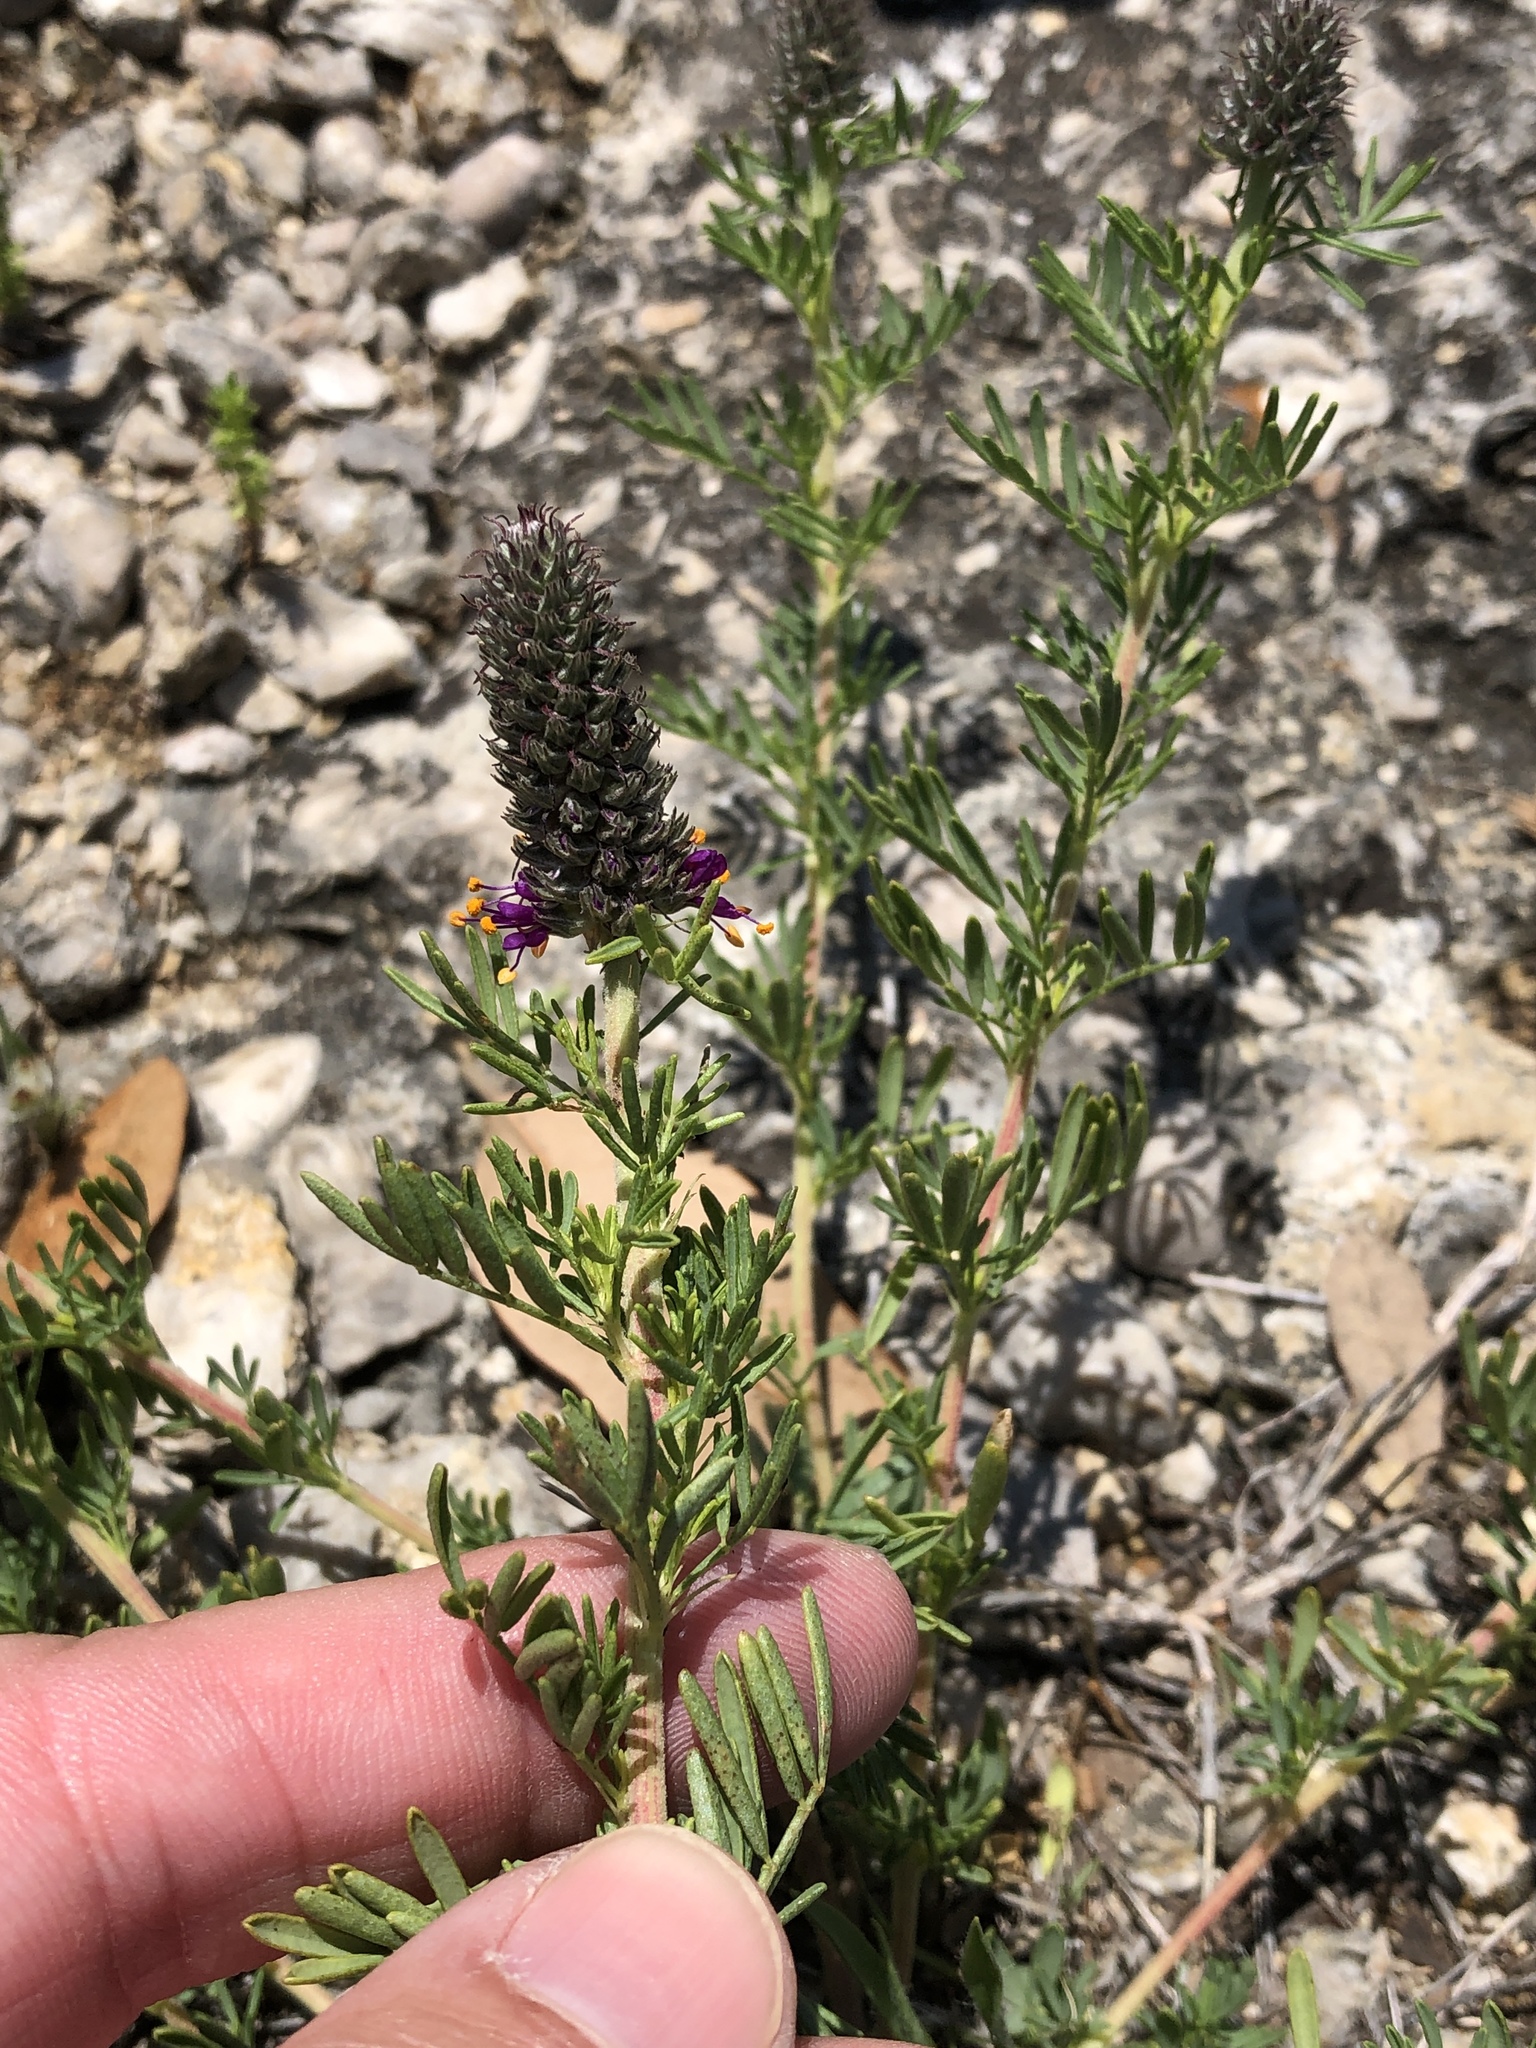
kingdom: Plantae
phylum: Tracheophyta
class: Magnoliopsida
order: Fabales
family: Fabaceae
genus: Dalea
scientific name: Dalea reverchonii
